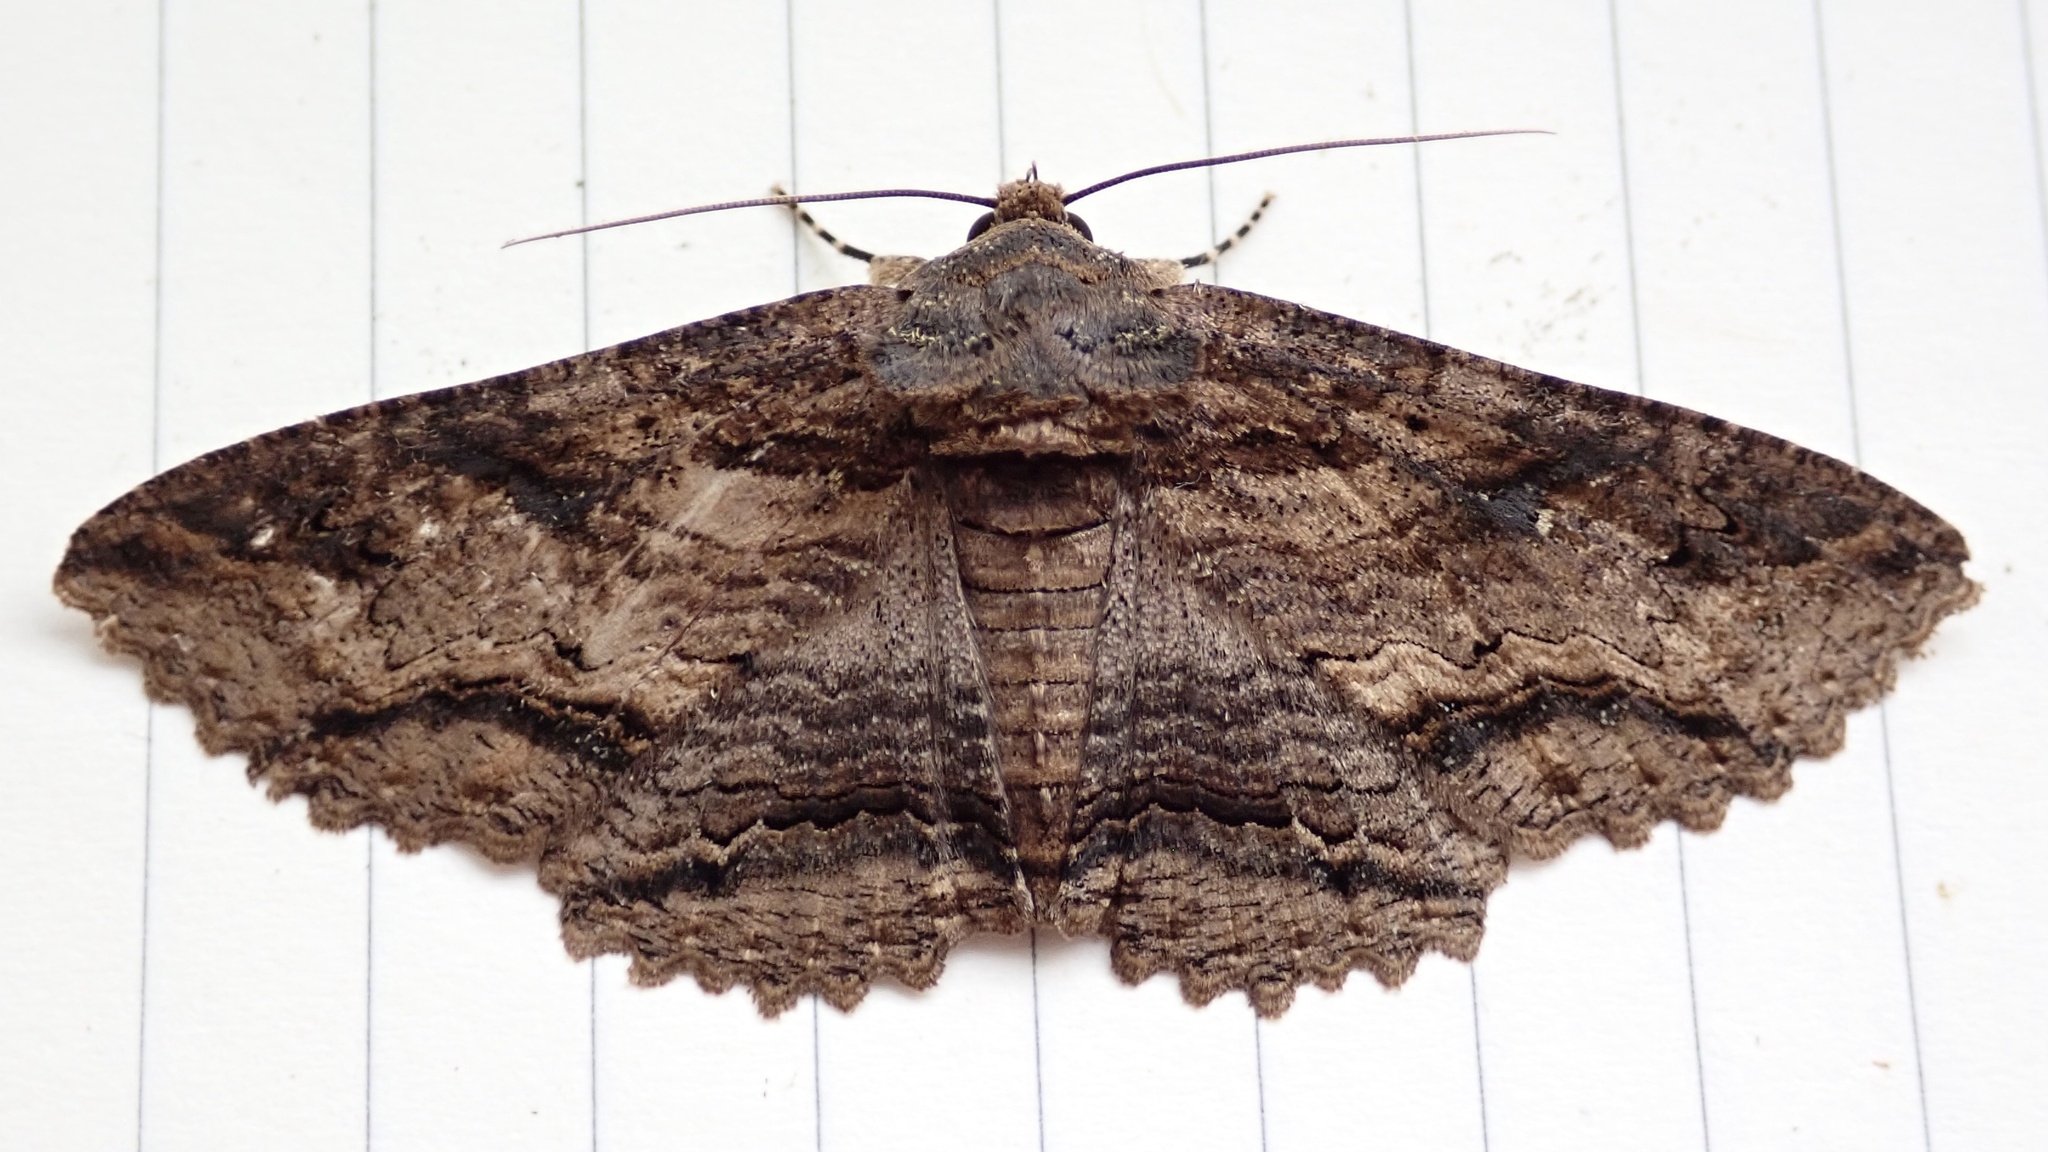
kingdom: Animalia
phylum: Arthropoda
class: Insecta
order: Lepidoptera
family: Erebidae
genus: Zale
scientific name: Zale lunata
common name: Lunate zale moth
